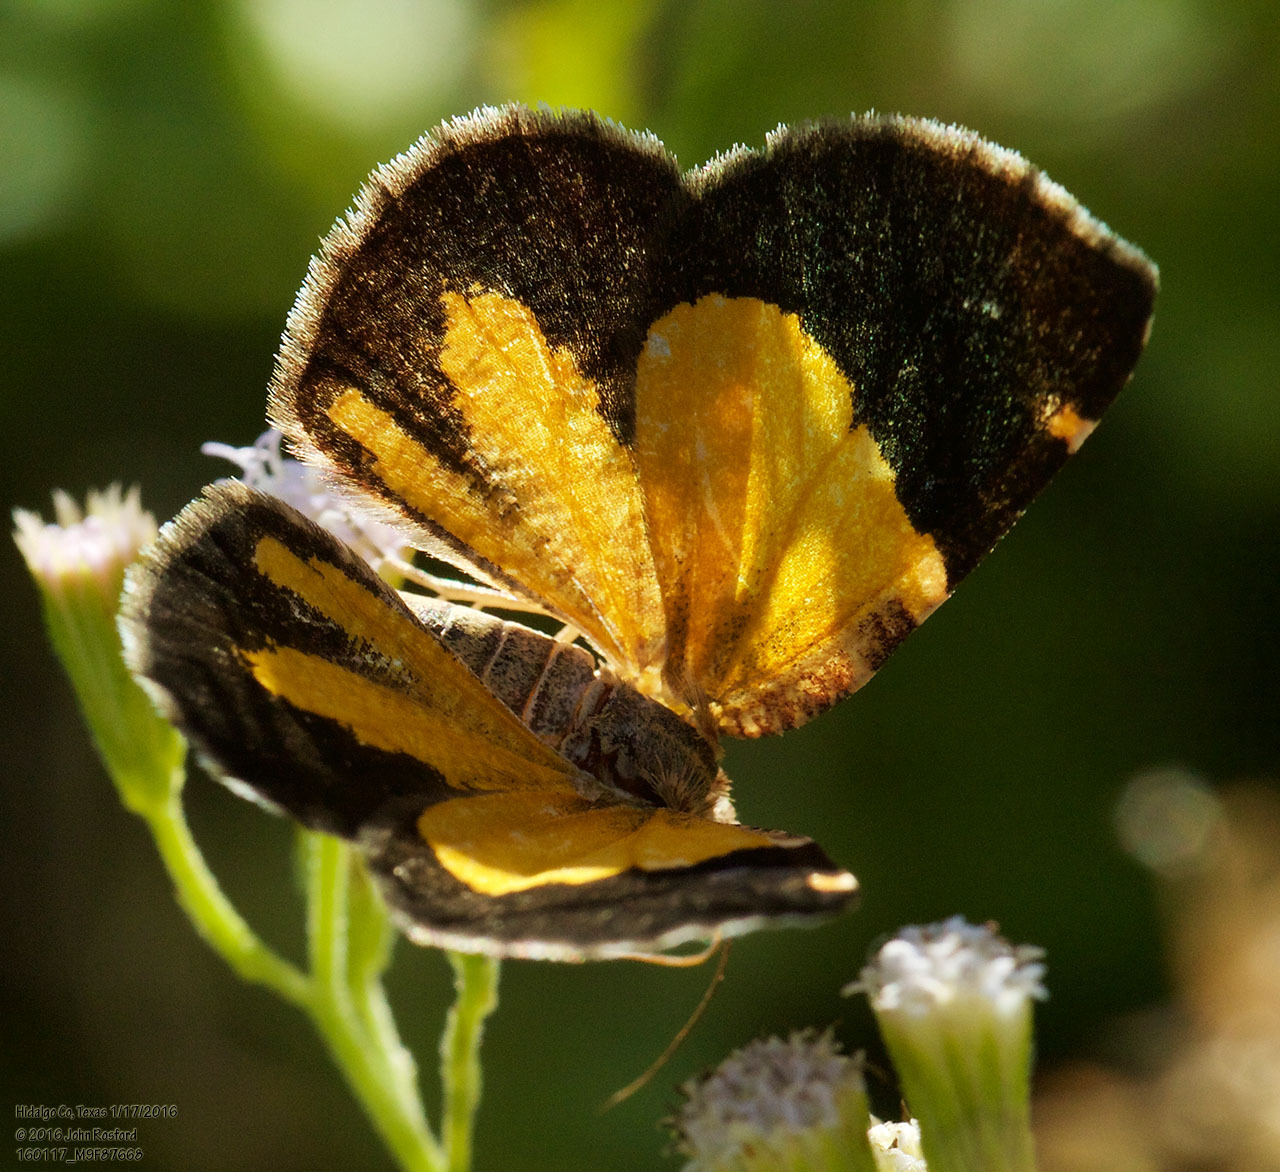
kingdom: Animalia
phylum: Arthropoda
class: Insecta
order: Lepidoptera
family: Geometridae
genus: Heterusia
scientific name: Heterusia atalantata
